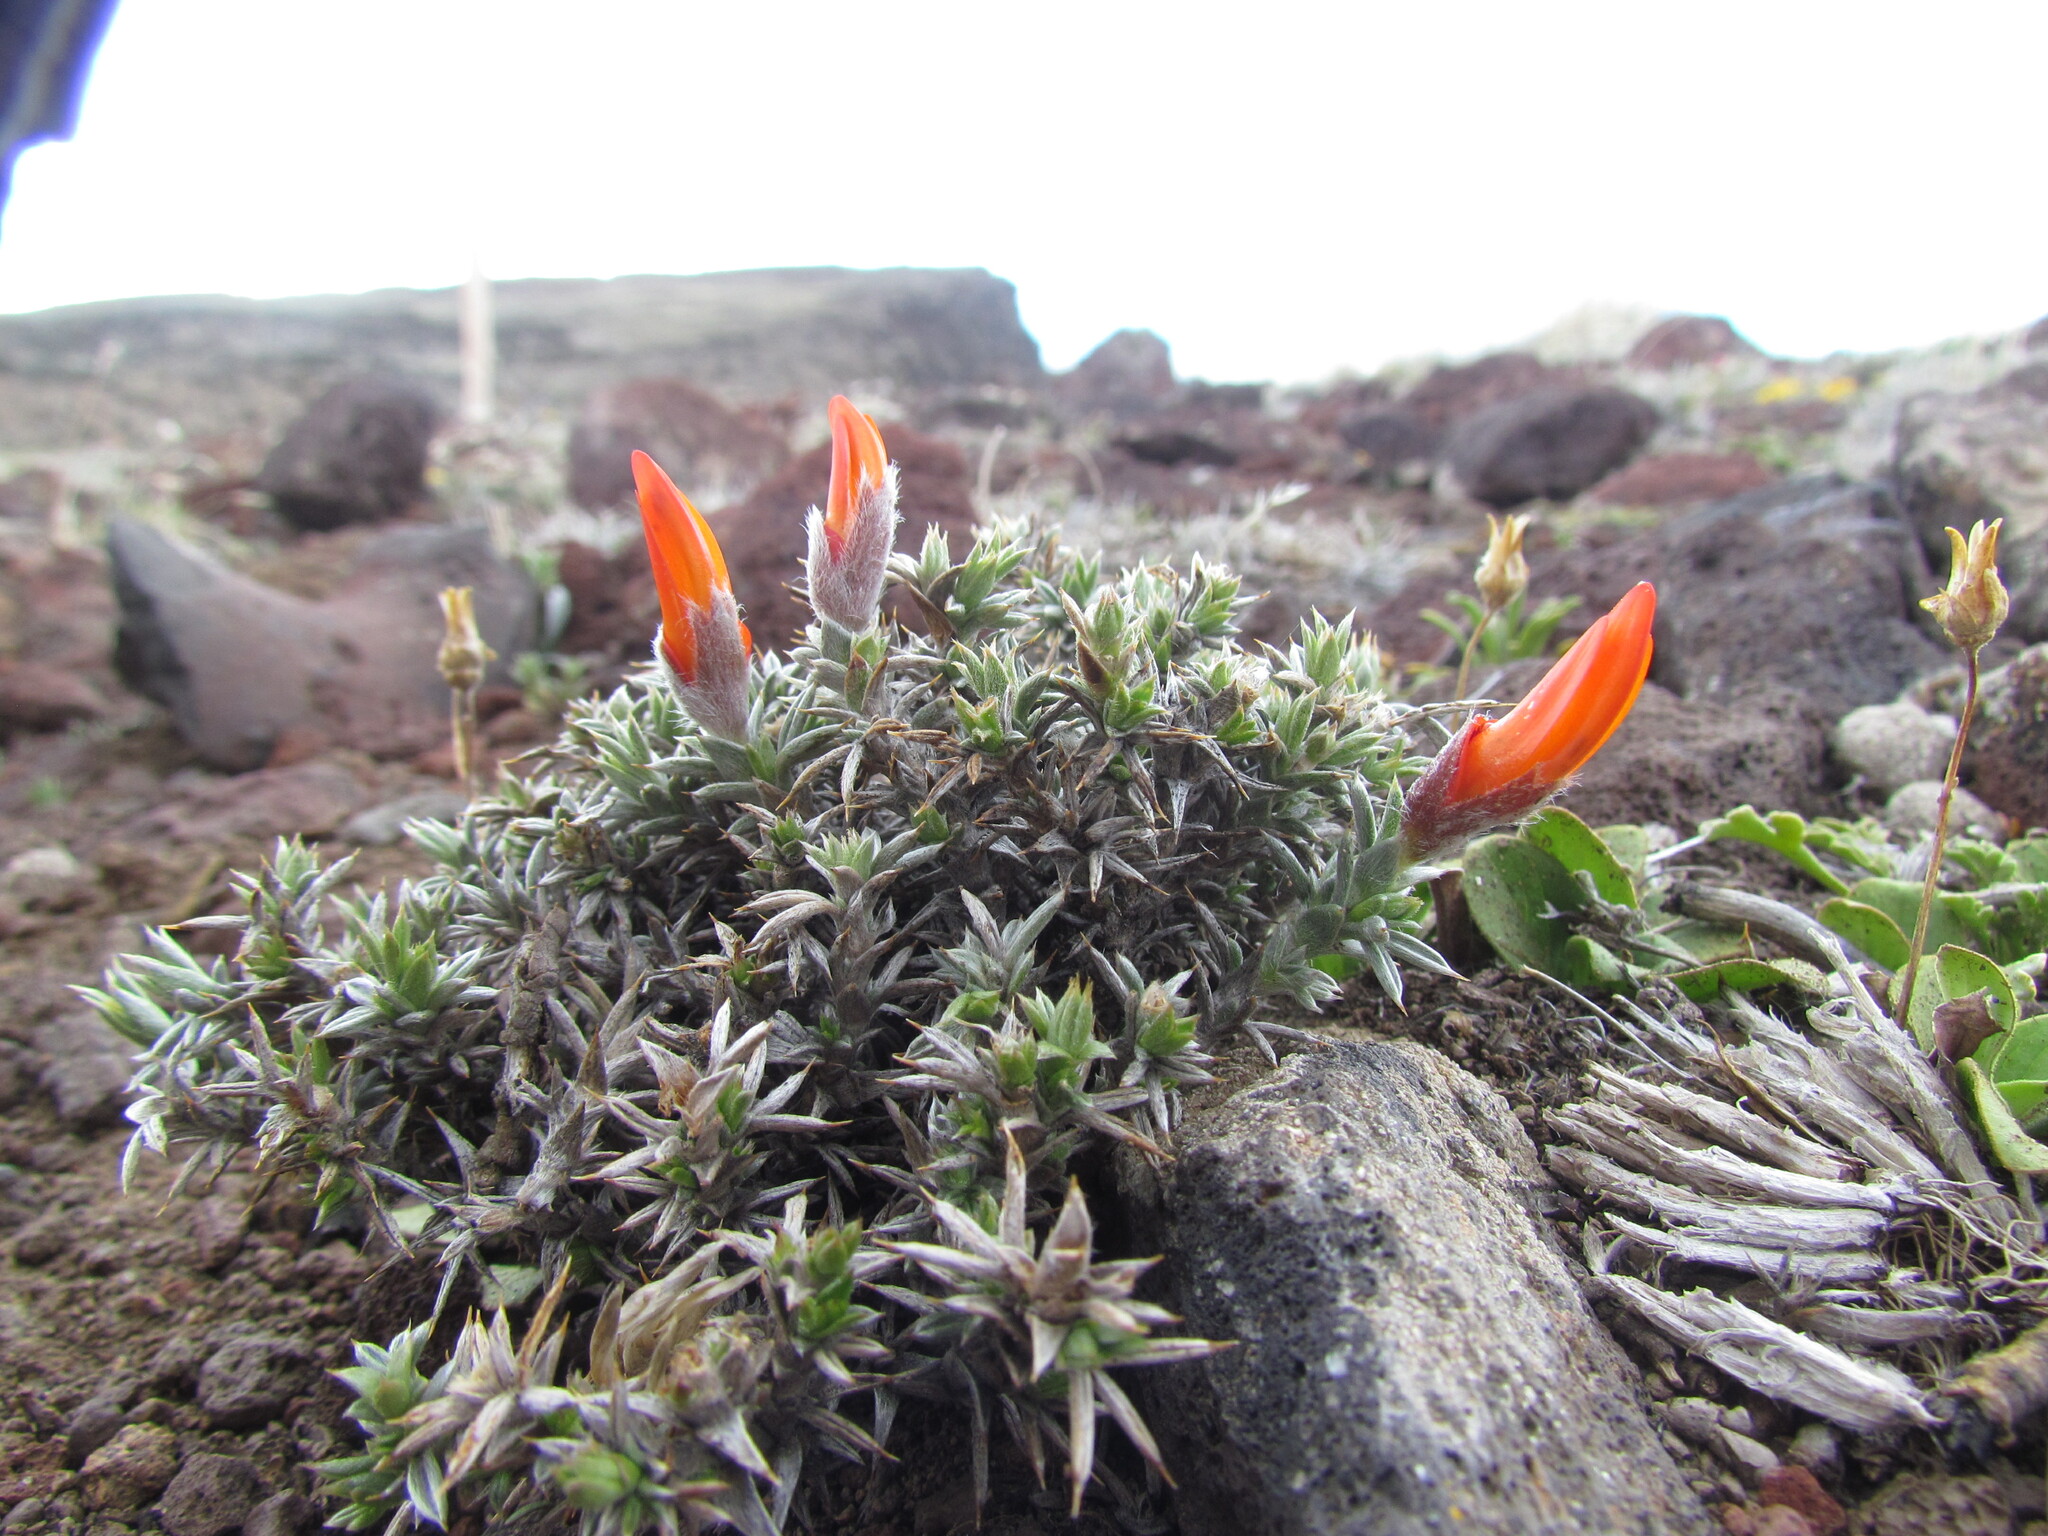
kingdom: Plantae
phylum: Tracheophyta
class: Magnoliopsida
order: Fabales
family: Fabaceae
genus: Anarthrophyllum
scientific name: Anarthrophyllum desideratum
